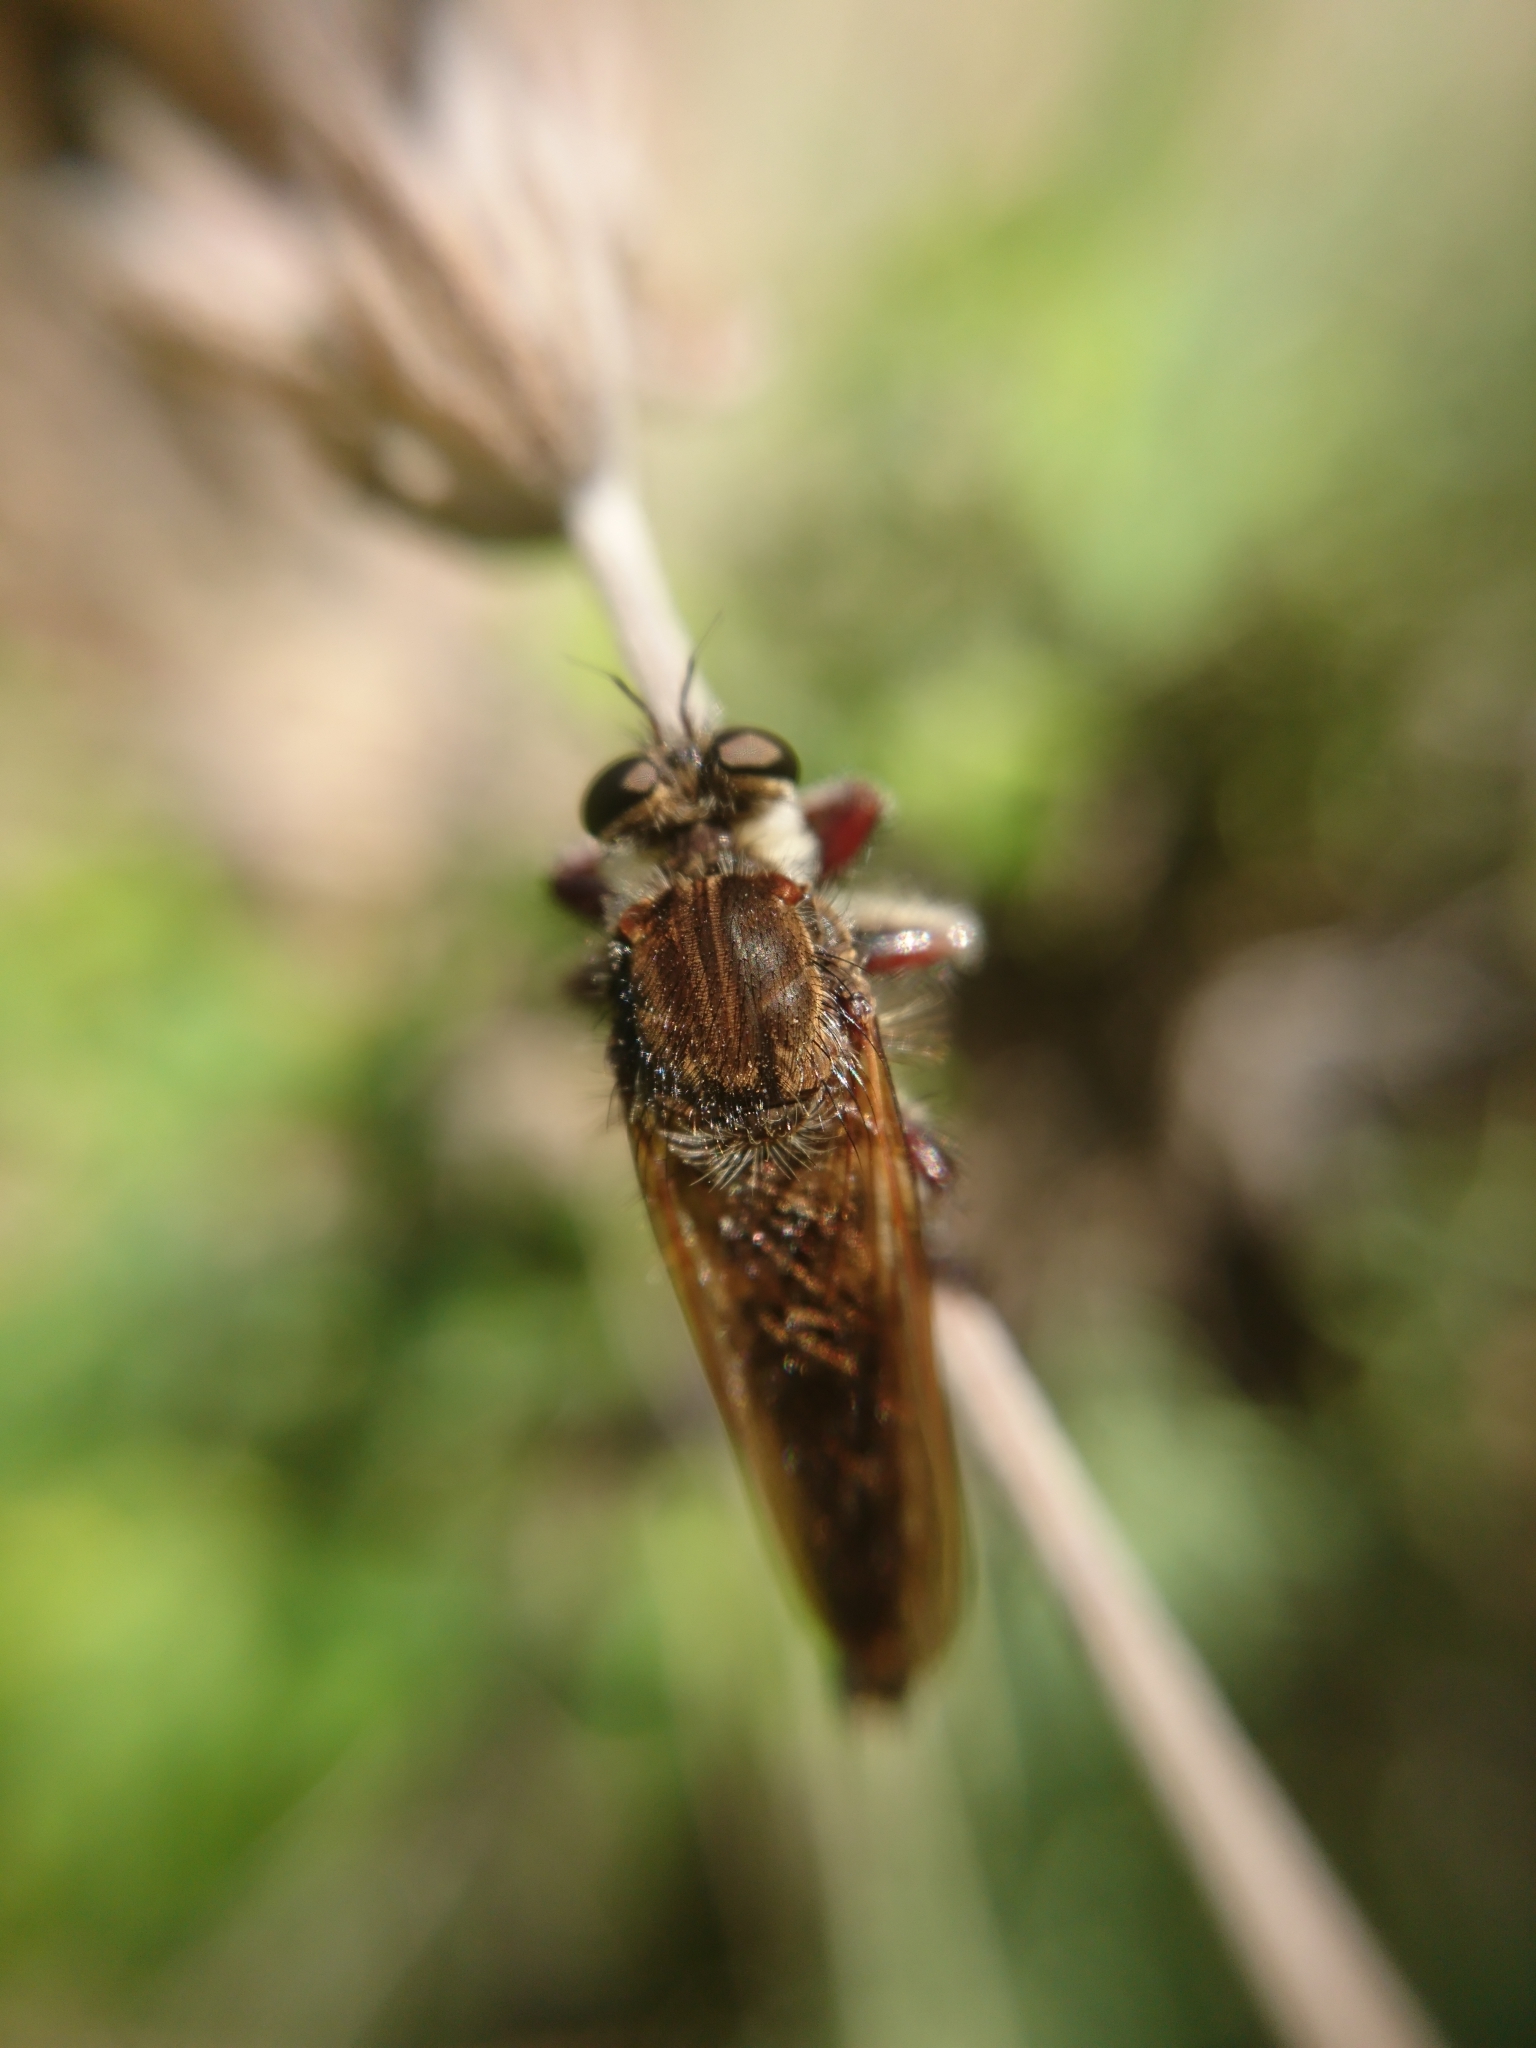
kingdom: Animalia
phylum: Arthropoda
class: Insecta
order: Diptera
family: Asilidae
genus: Mallophora
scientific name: Mallophora bigotii
